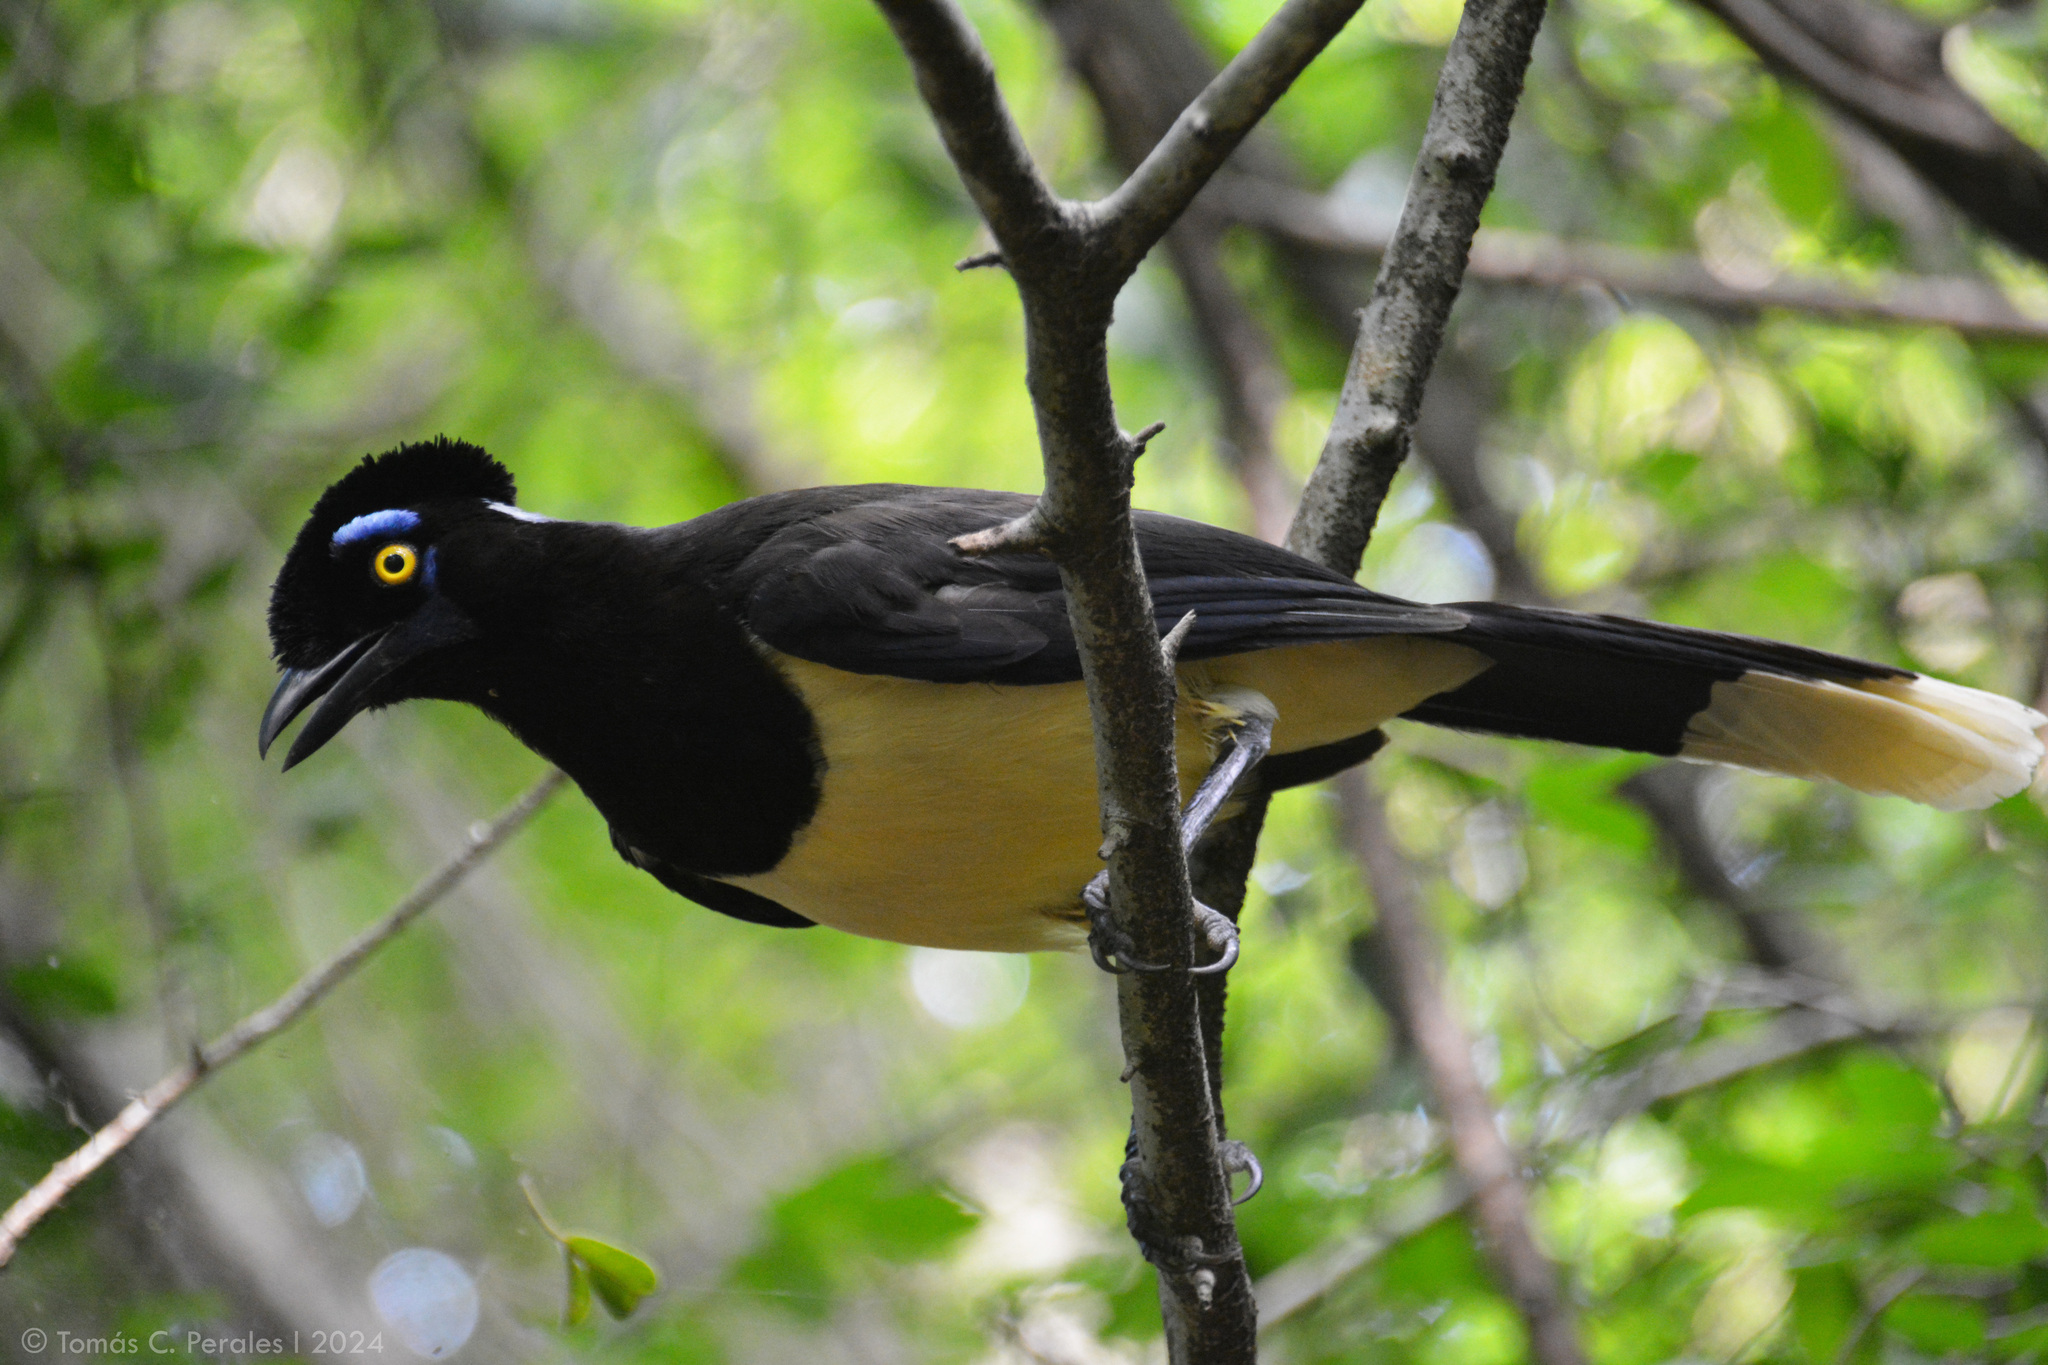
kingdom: Animalia
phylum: Chordata
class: Aves
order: Passeriformes
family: Corvidae
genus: Cyanocorax
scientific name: Cyanocorax chrysops
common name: Plush-crested jay
